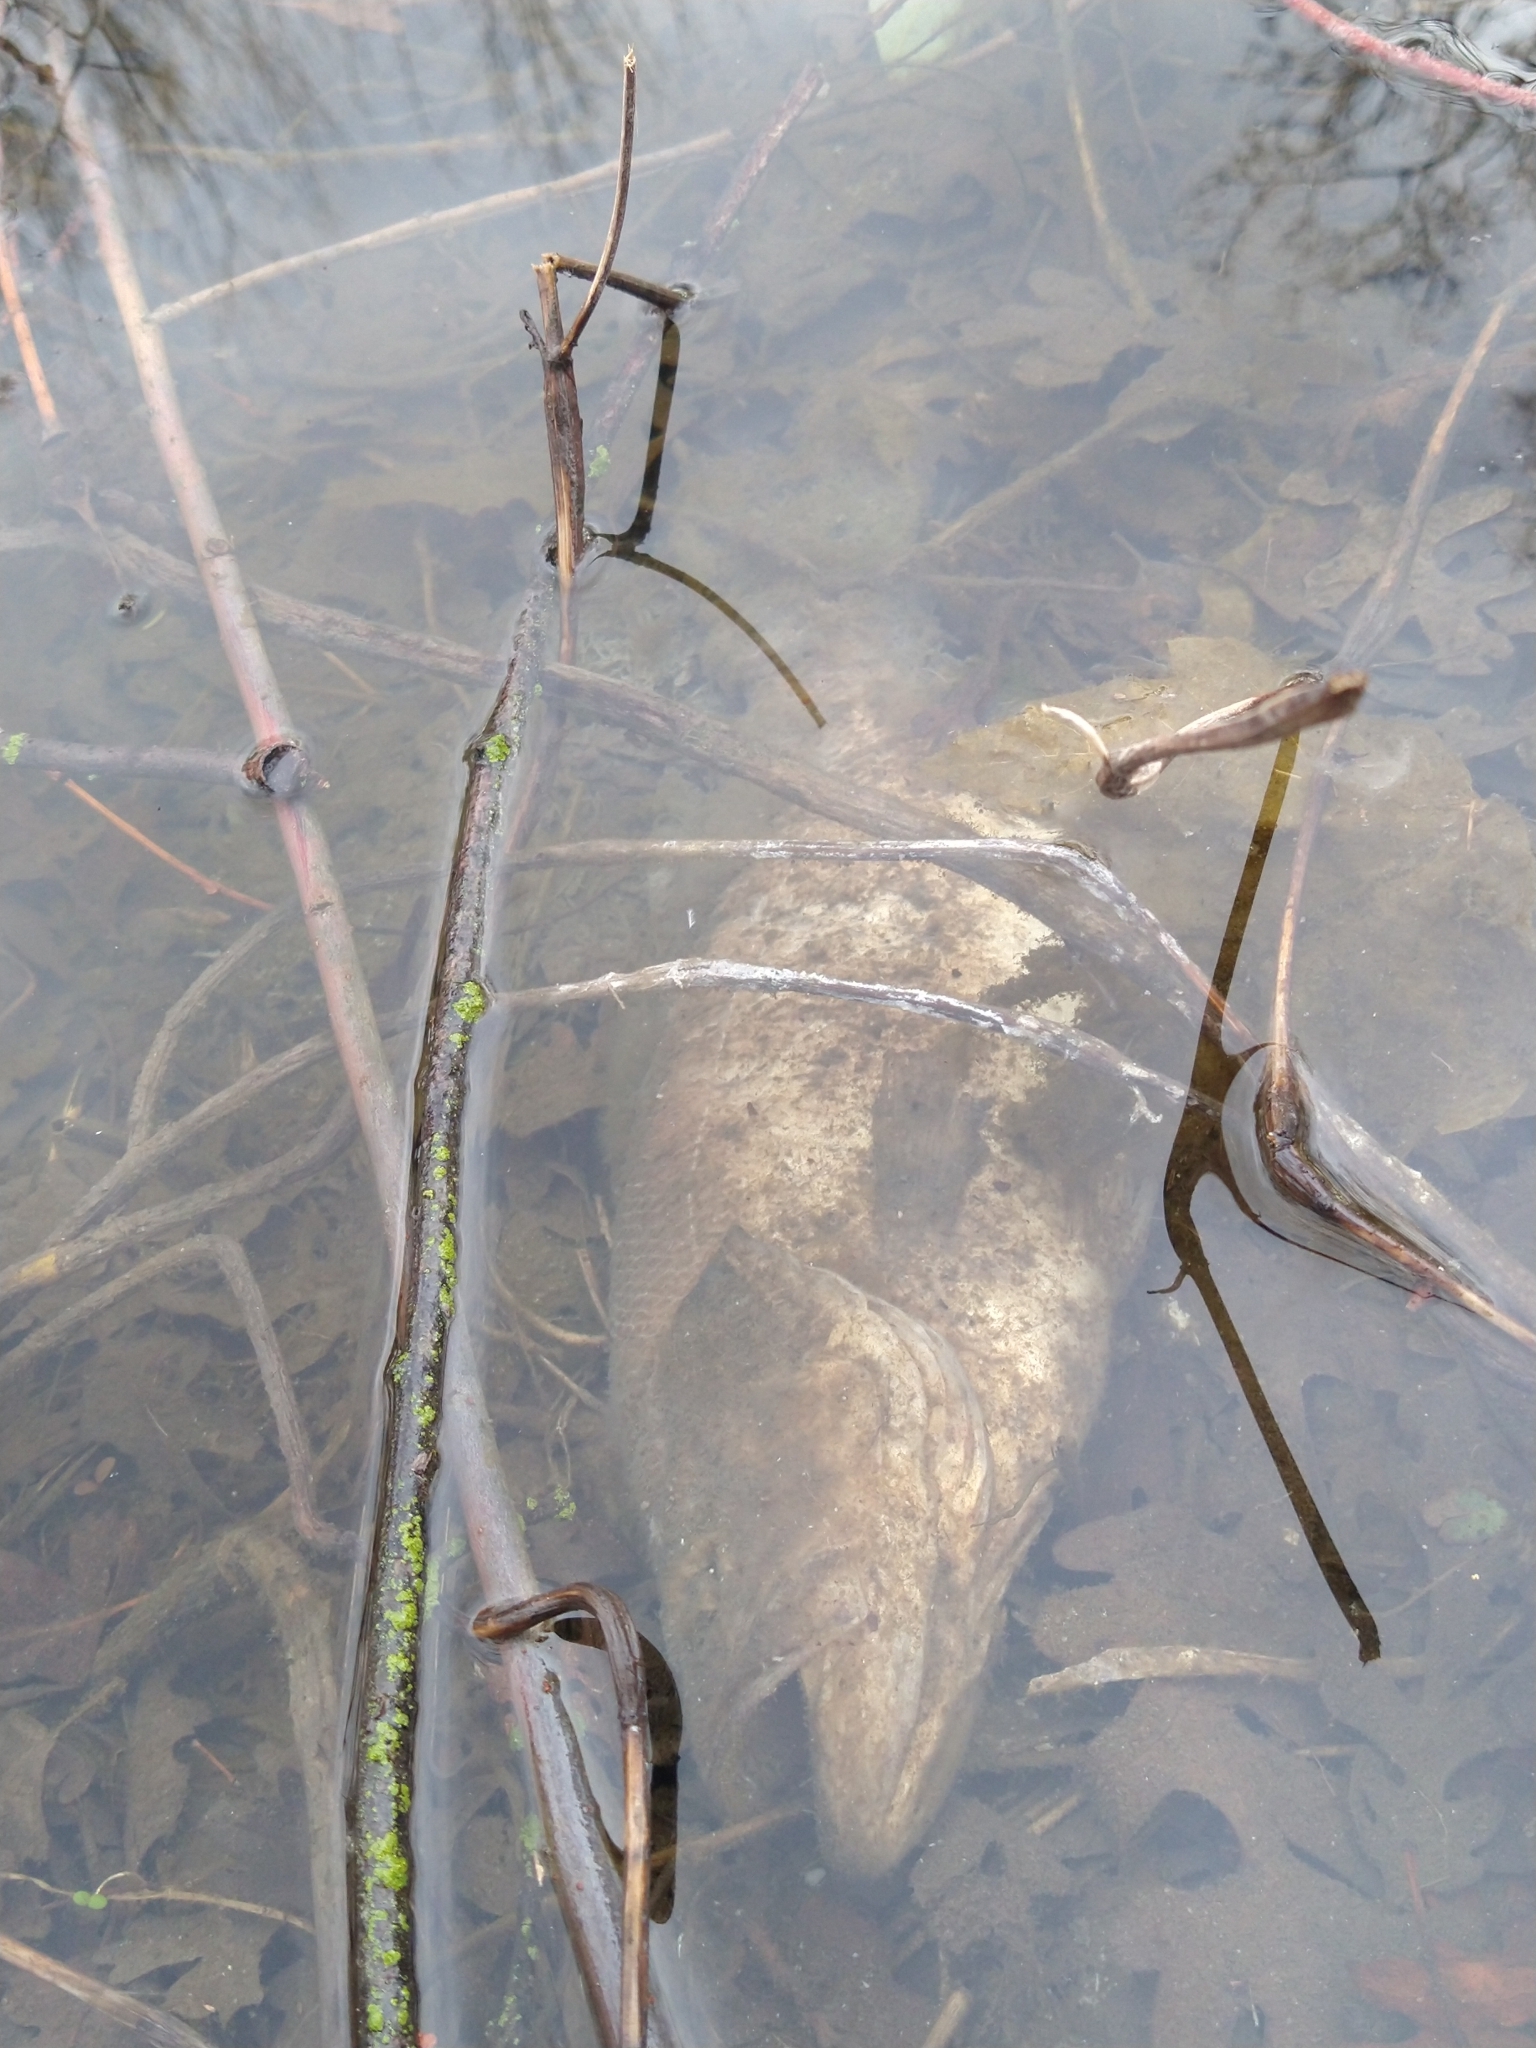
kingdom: Animalia
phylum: Chordata
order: Perciformes
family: Centrarchidae
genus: Micropterus
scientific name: Micropterus
